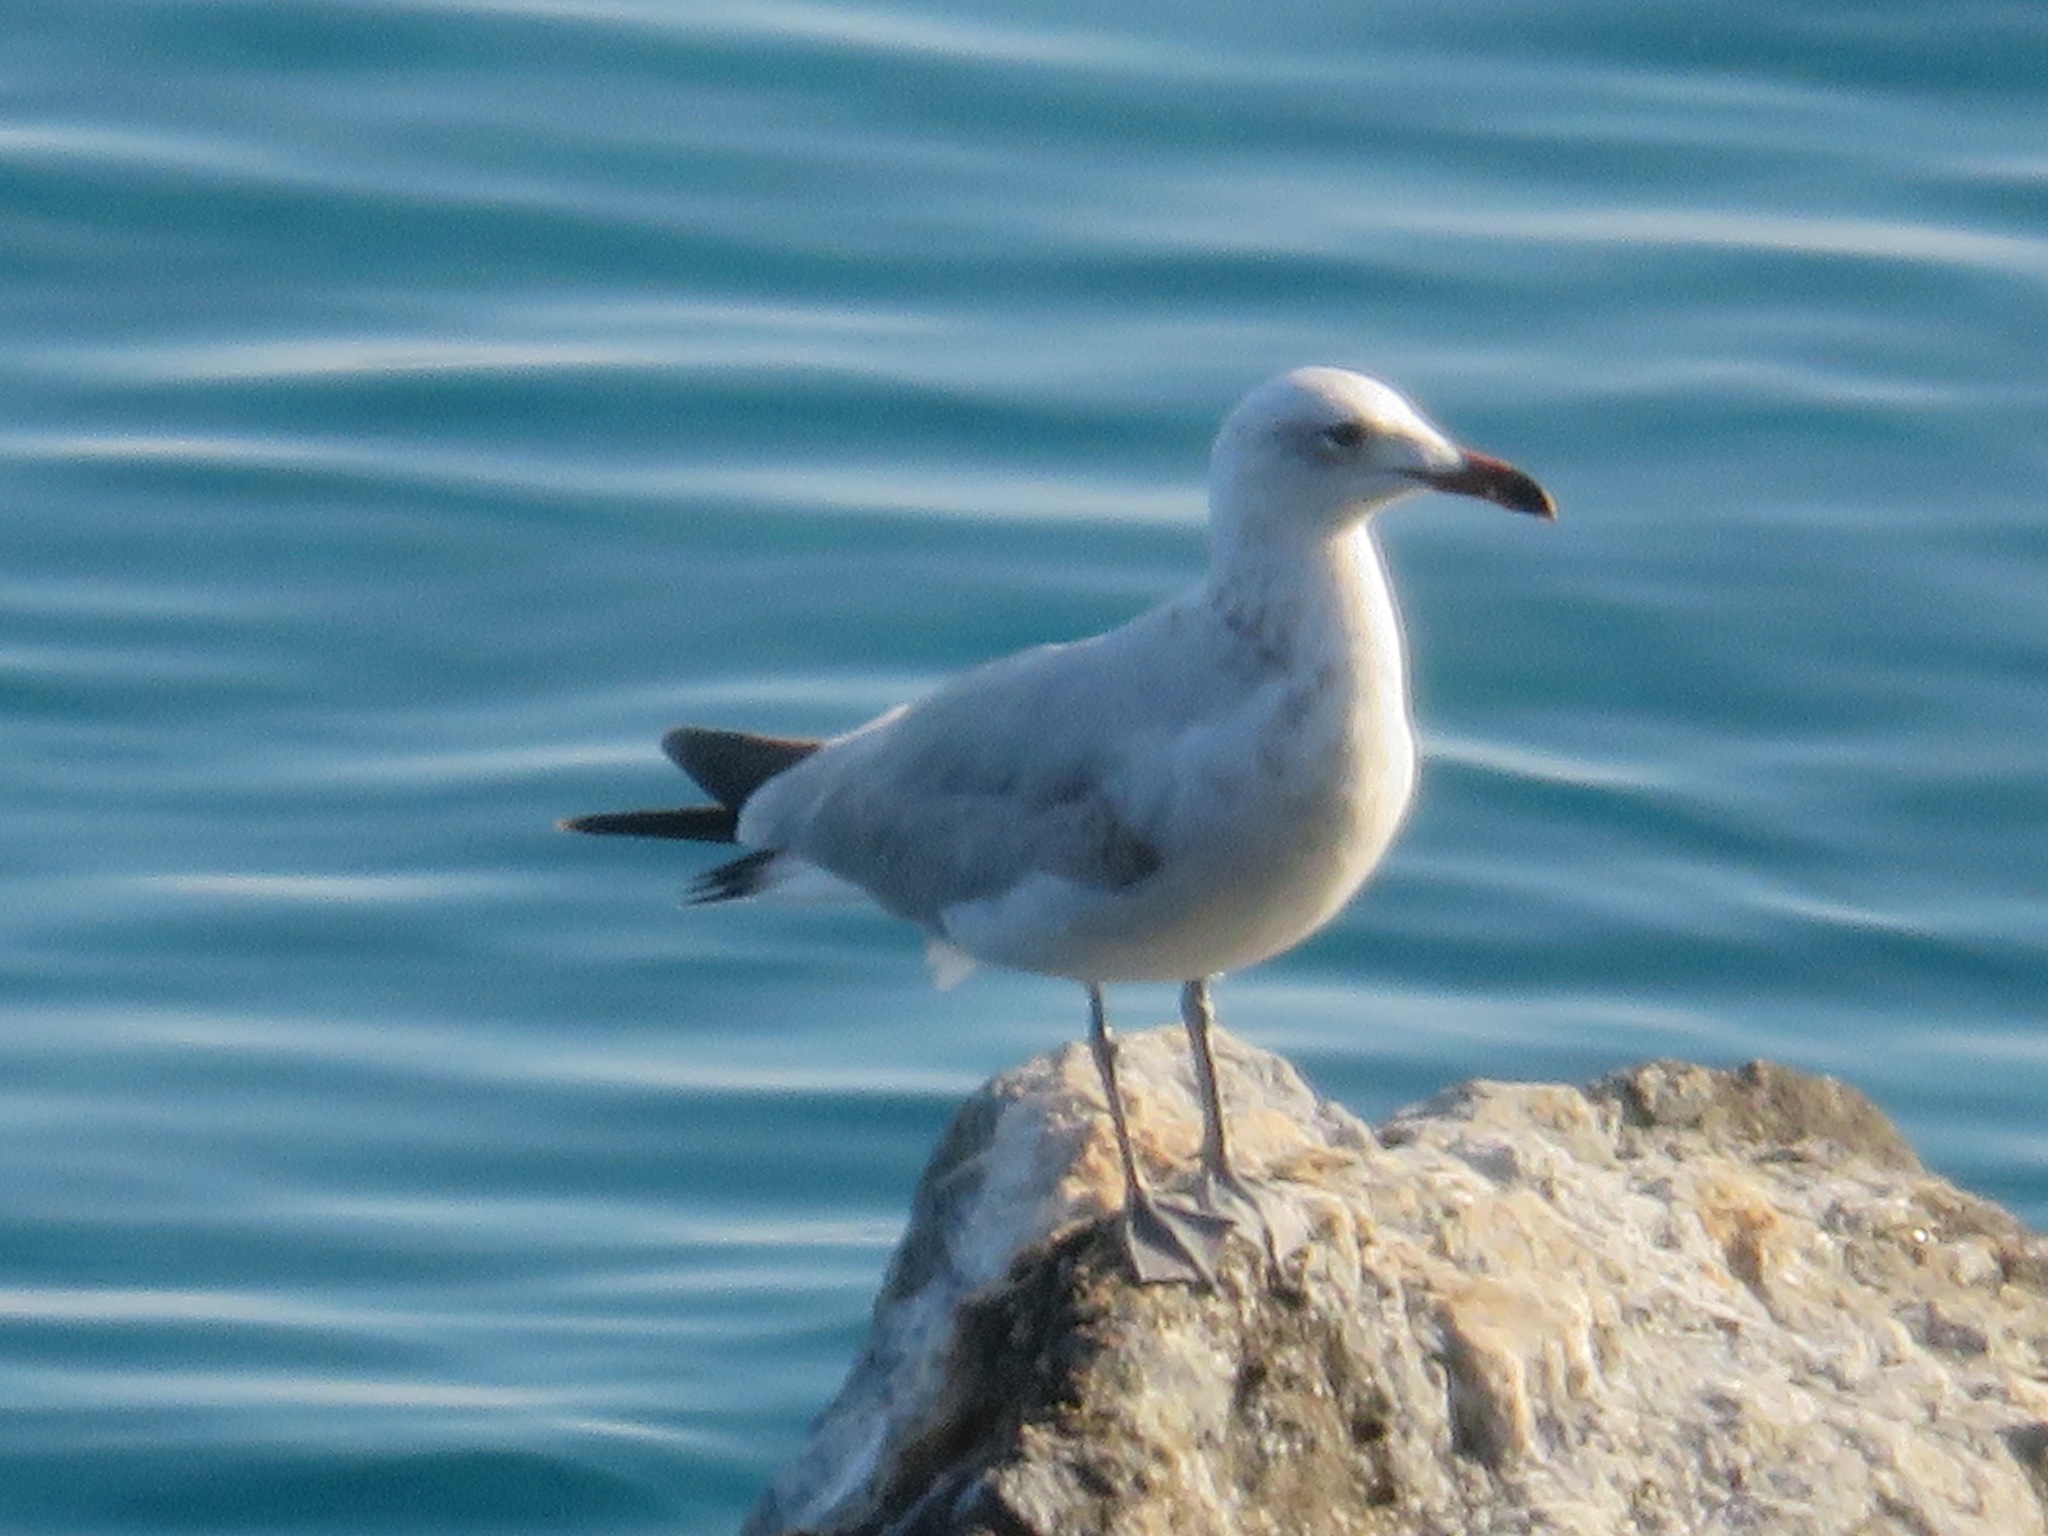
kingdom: Animalia
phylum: Chordata
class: Aves
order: Charadriiformes
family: Laridae
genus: Ichthyaetus
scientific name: Ichthyaetus audouinii
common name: Audouin's gull
